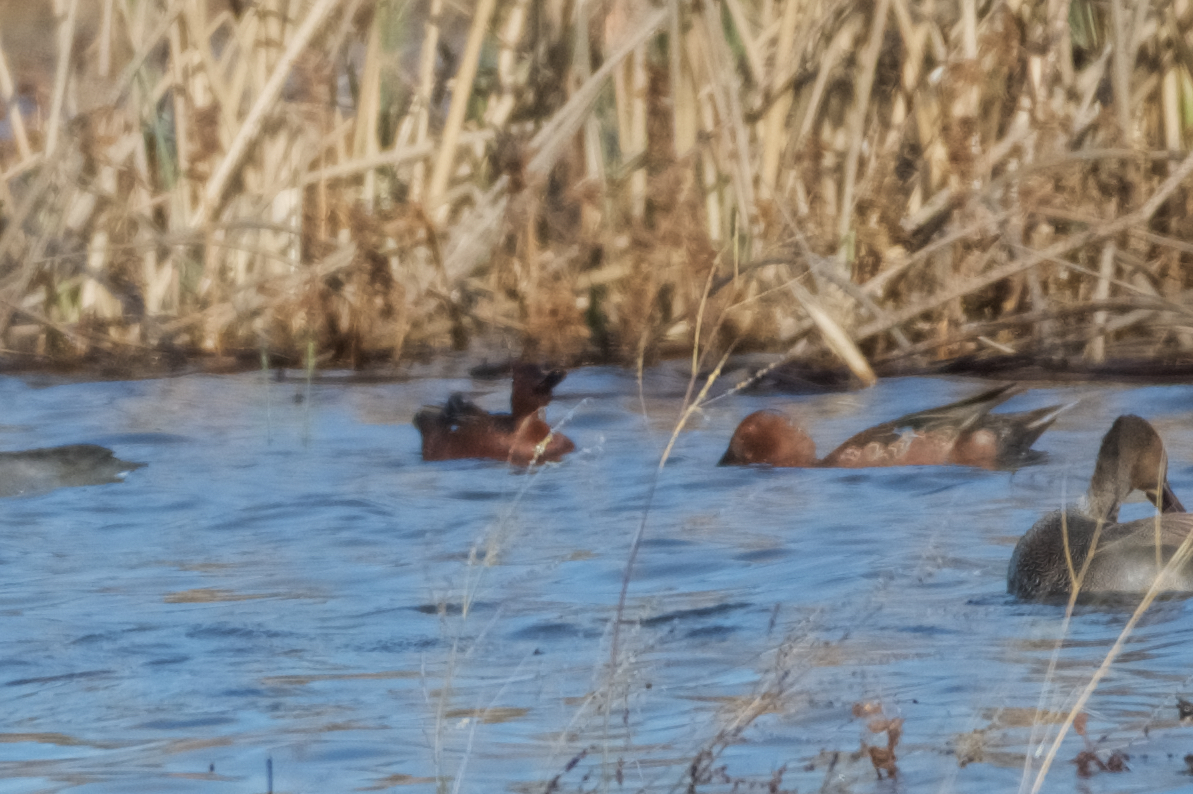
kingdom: Animalia
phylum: Chordata
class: Aves
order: Anseriformes
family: Anatidae
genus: Spatula
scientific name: Spatula cyanoptera
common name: Cinnamon teal
